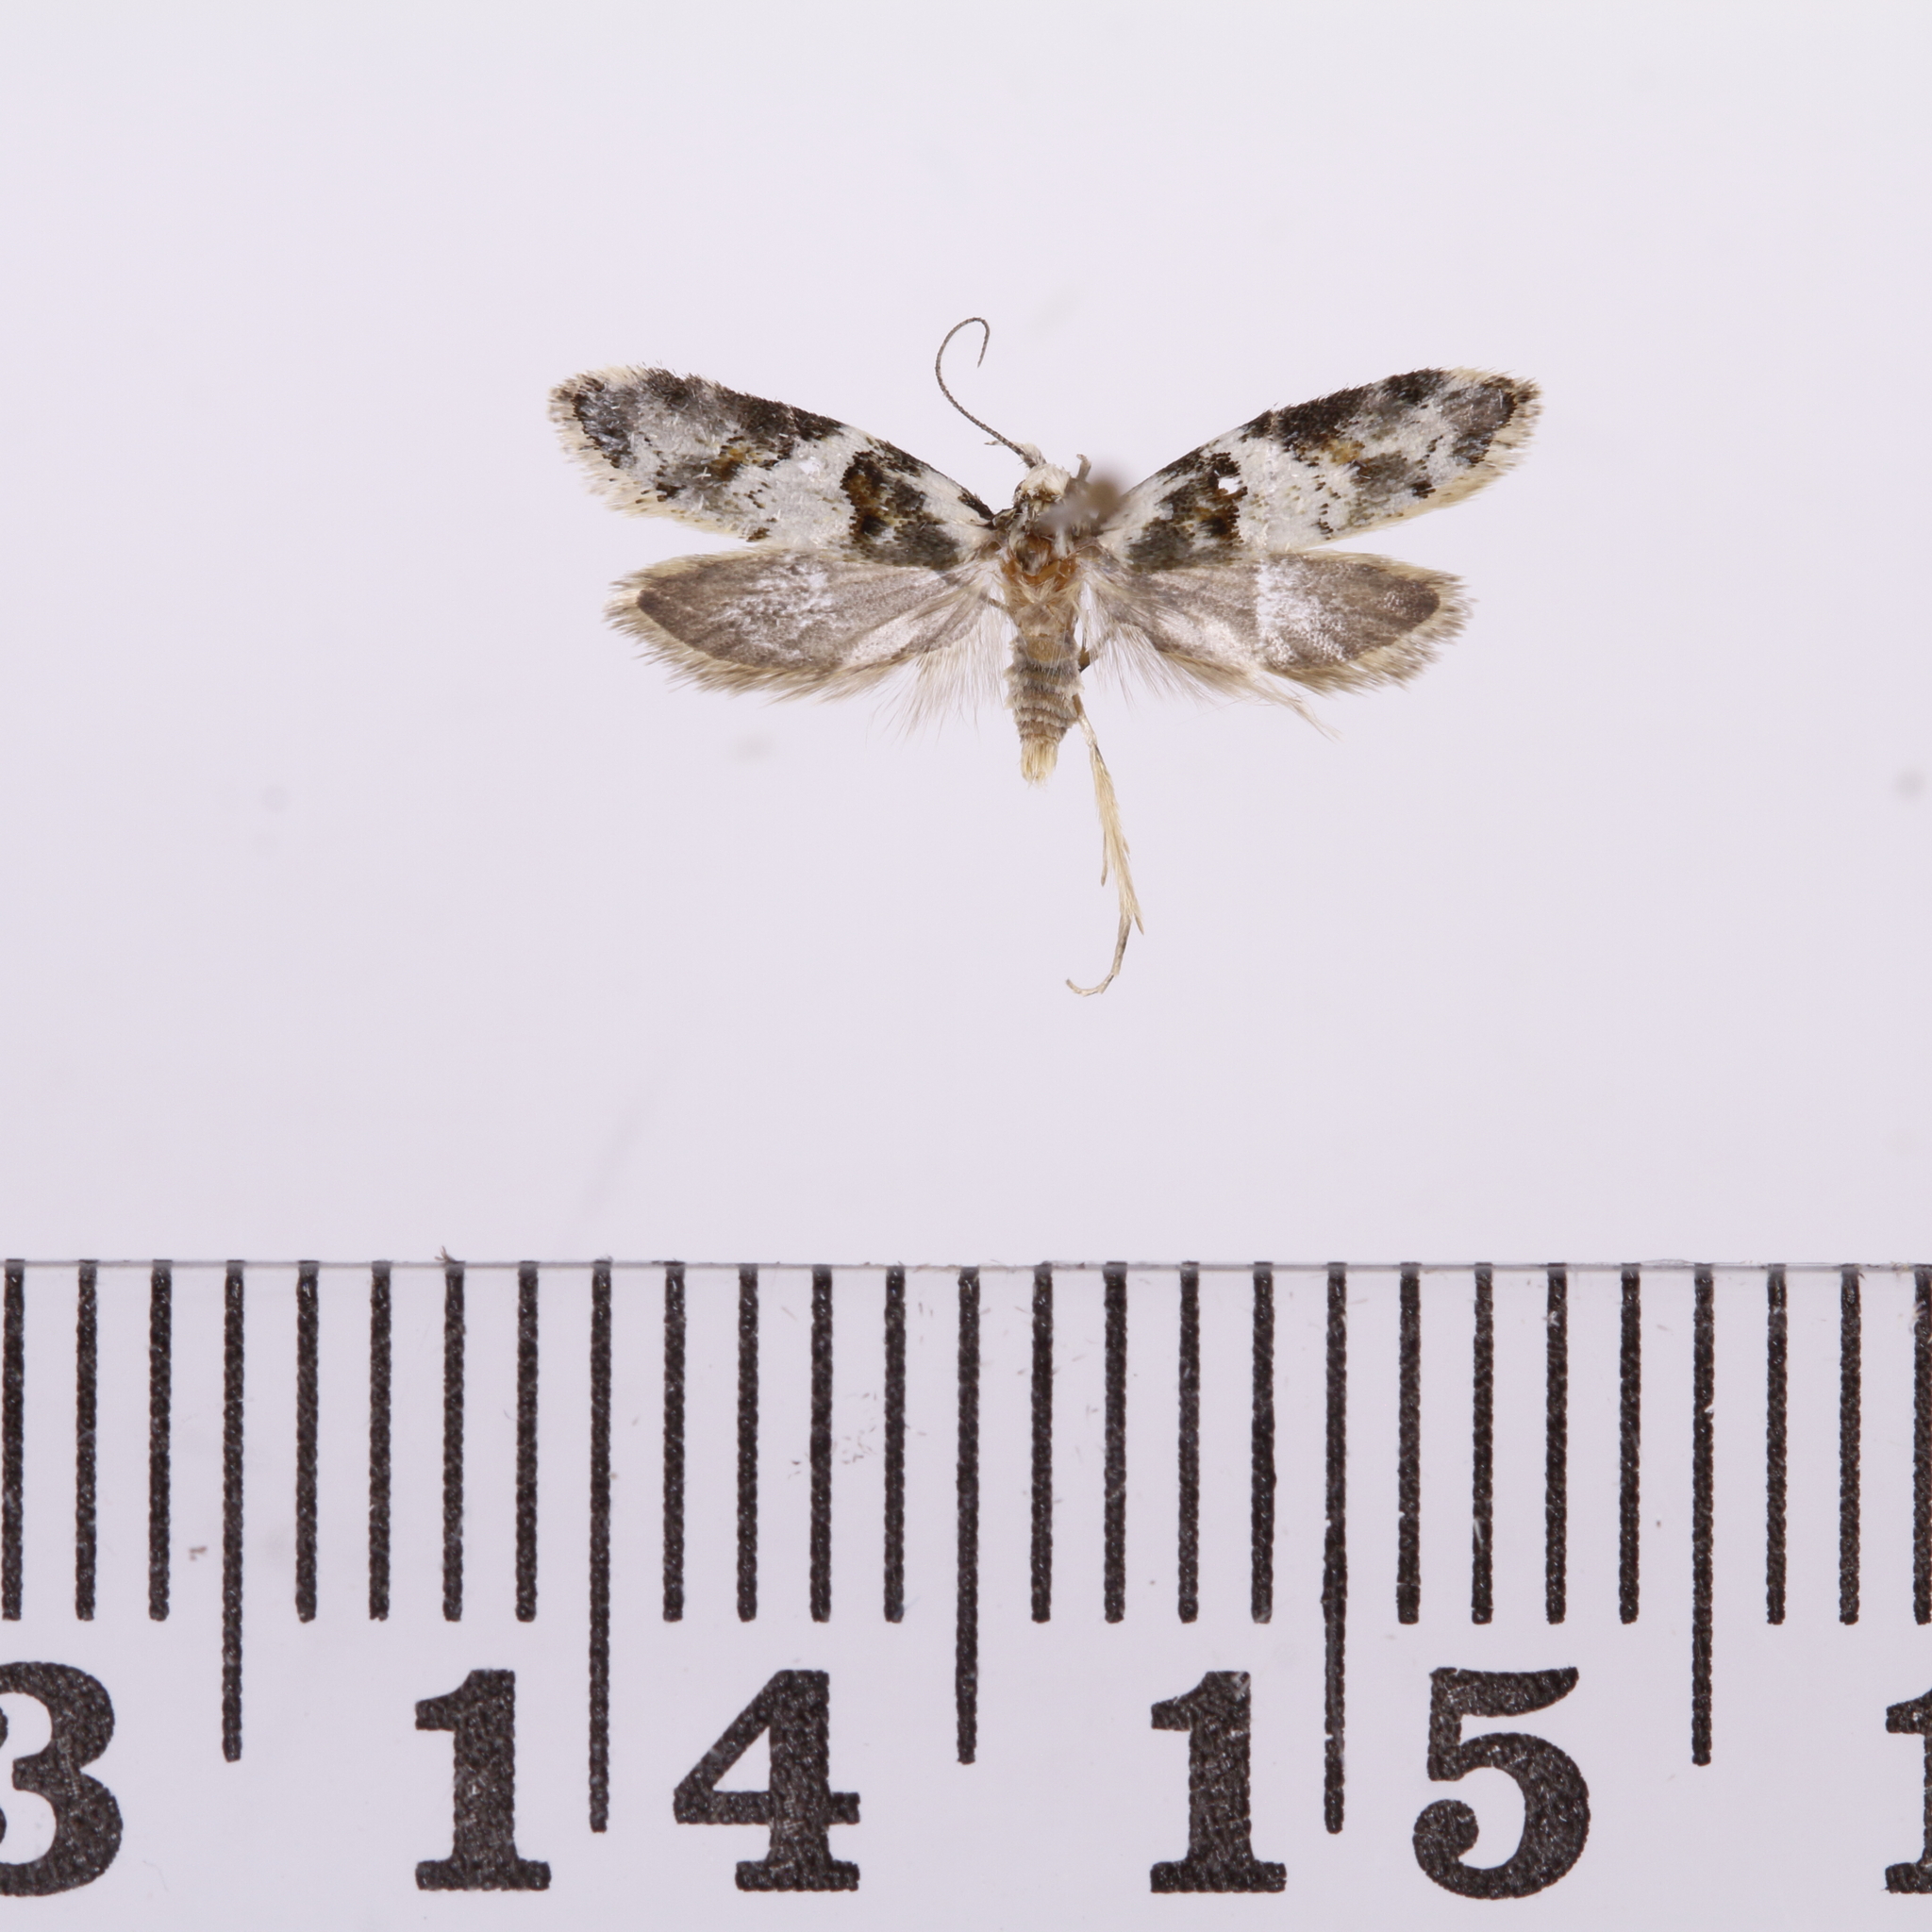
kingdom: Animalia
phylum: Arthropoda
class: Insecta
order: Lepidoptera
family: Oecophoridae
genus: Trachypepla
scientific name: Trachypepla galaxias
